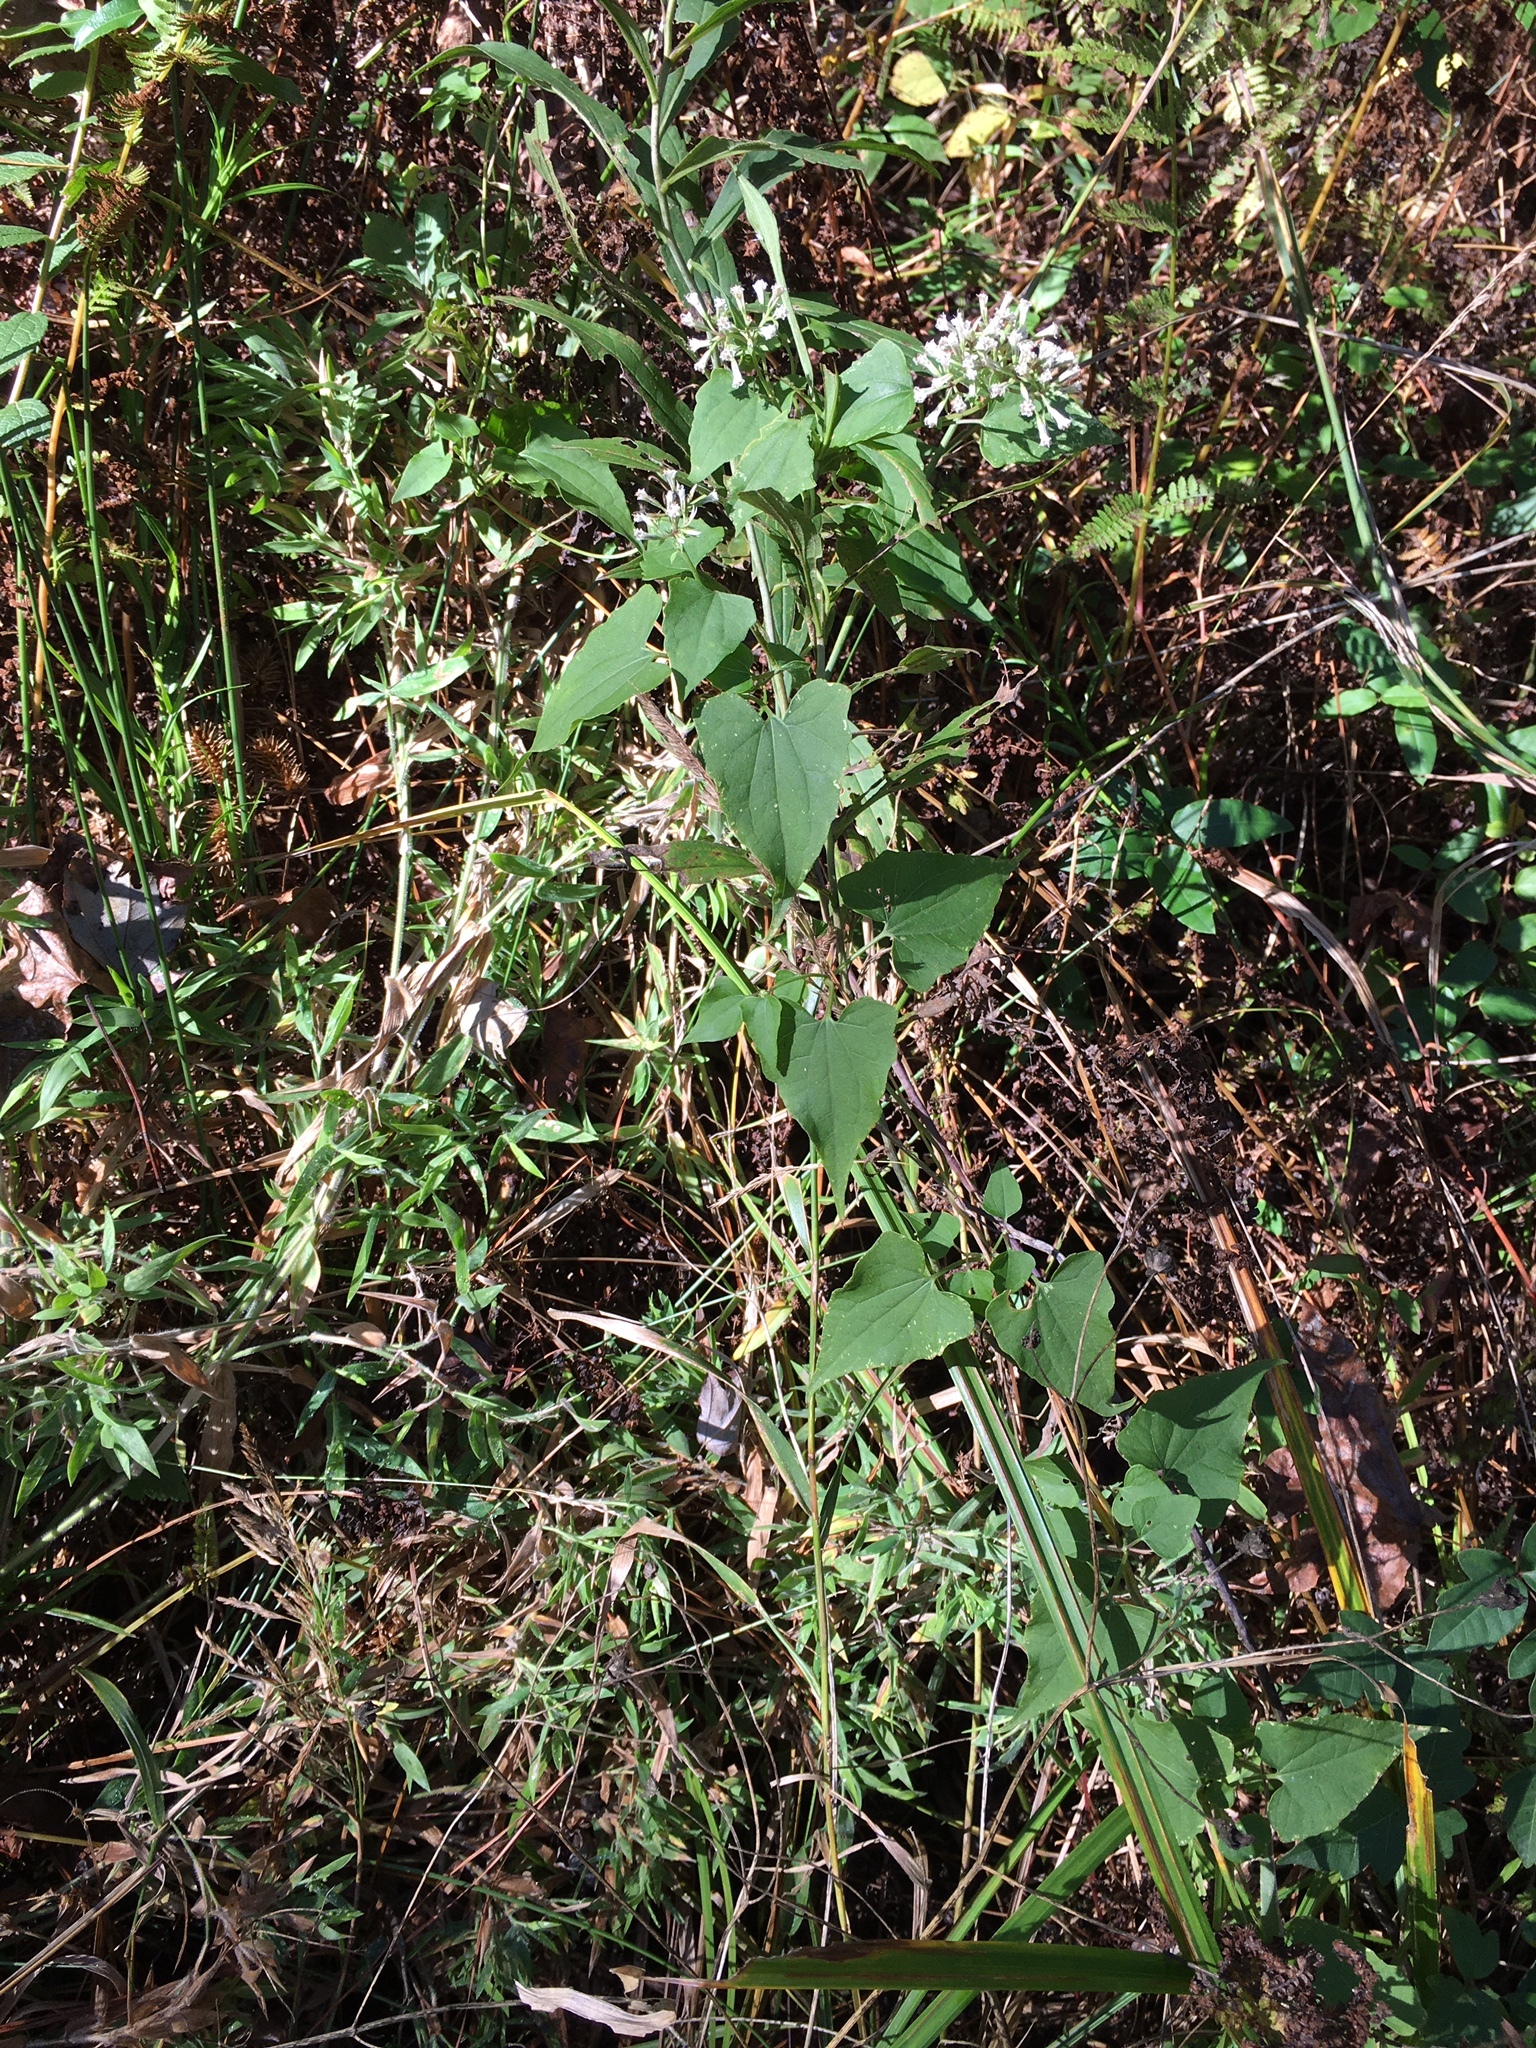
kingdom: Plantae
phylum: Tracheophyta
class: Magnoliopsida
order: Asterales
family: Asteraceae
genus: Mikania
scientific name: Mikania scandens
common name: Climbing hempvine
